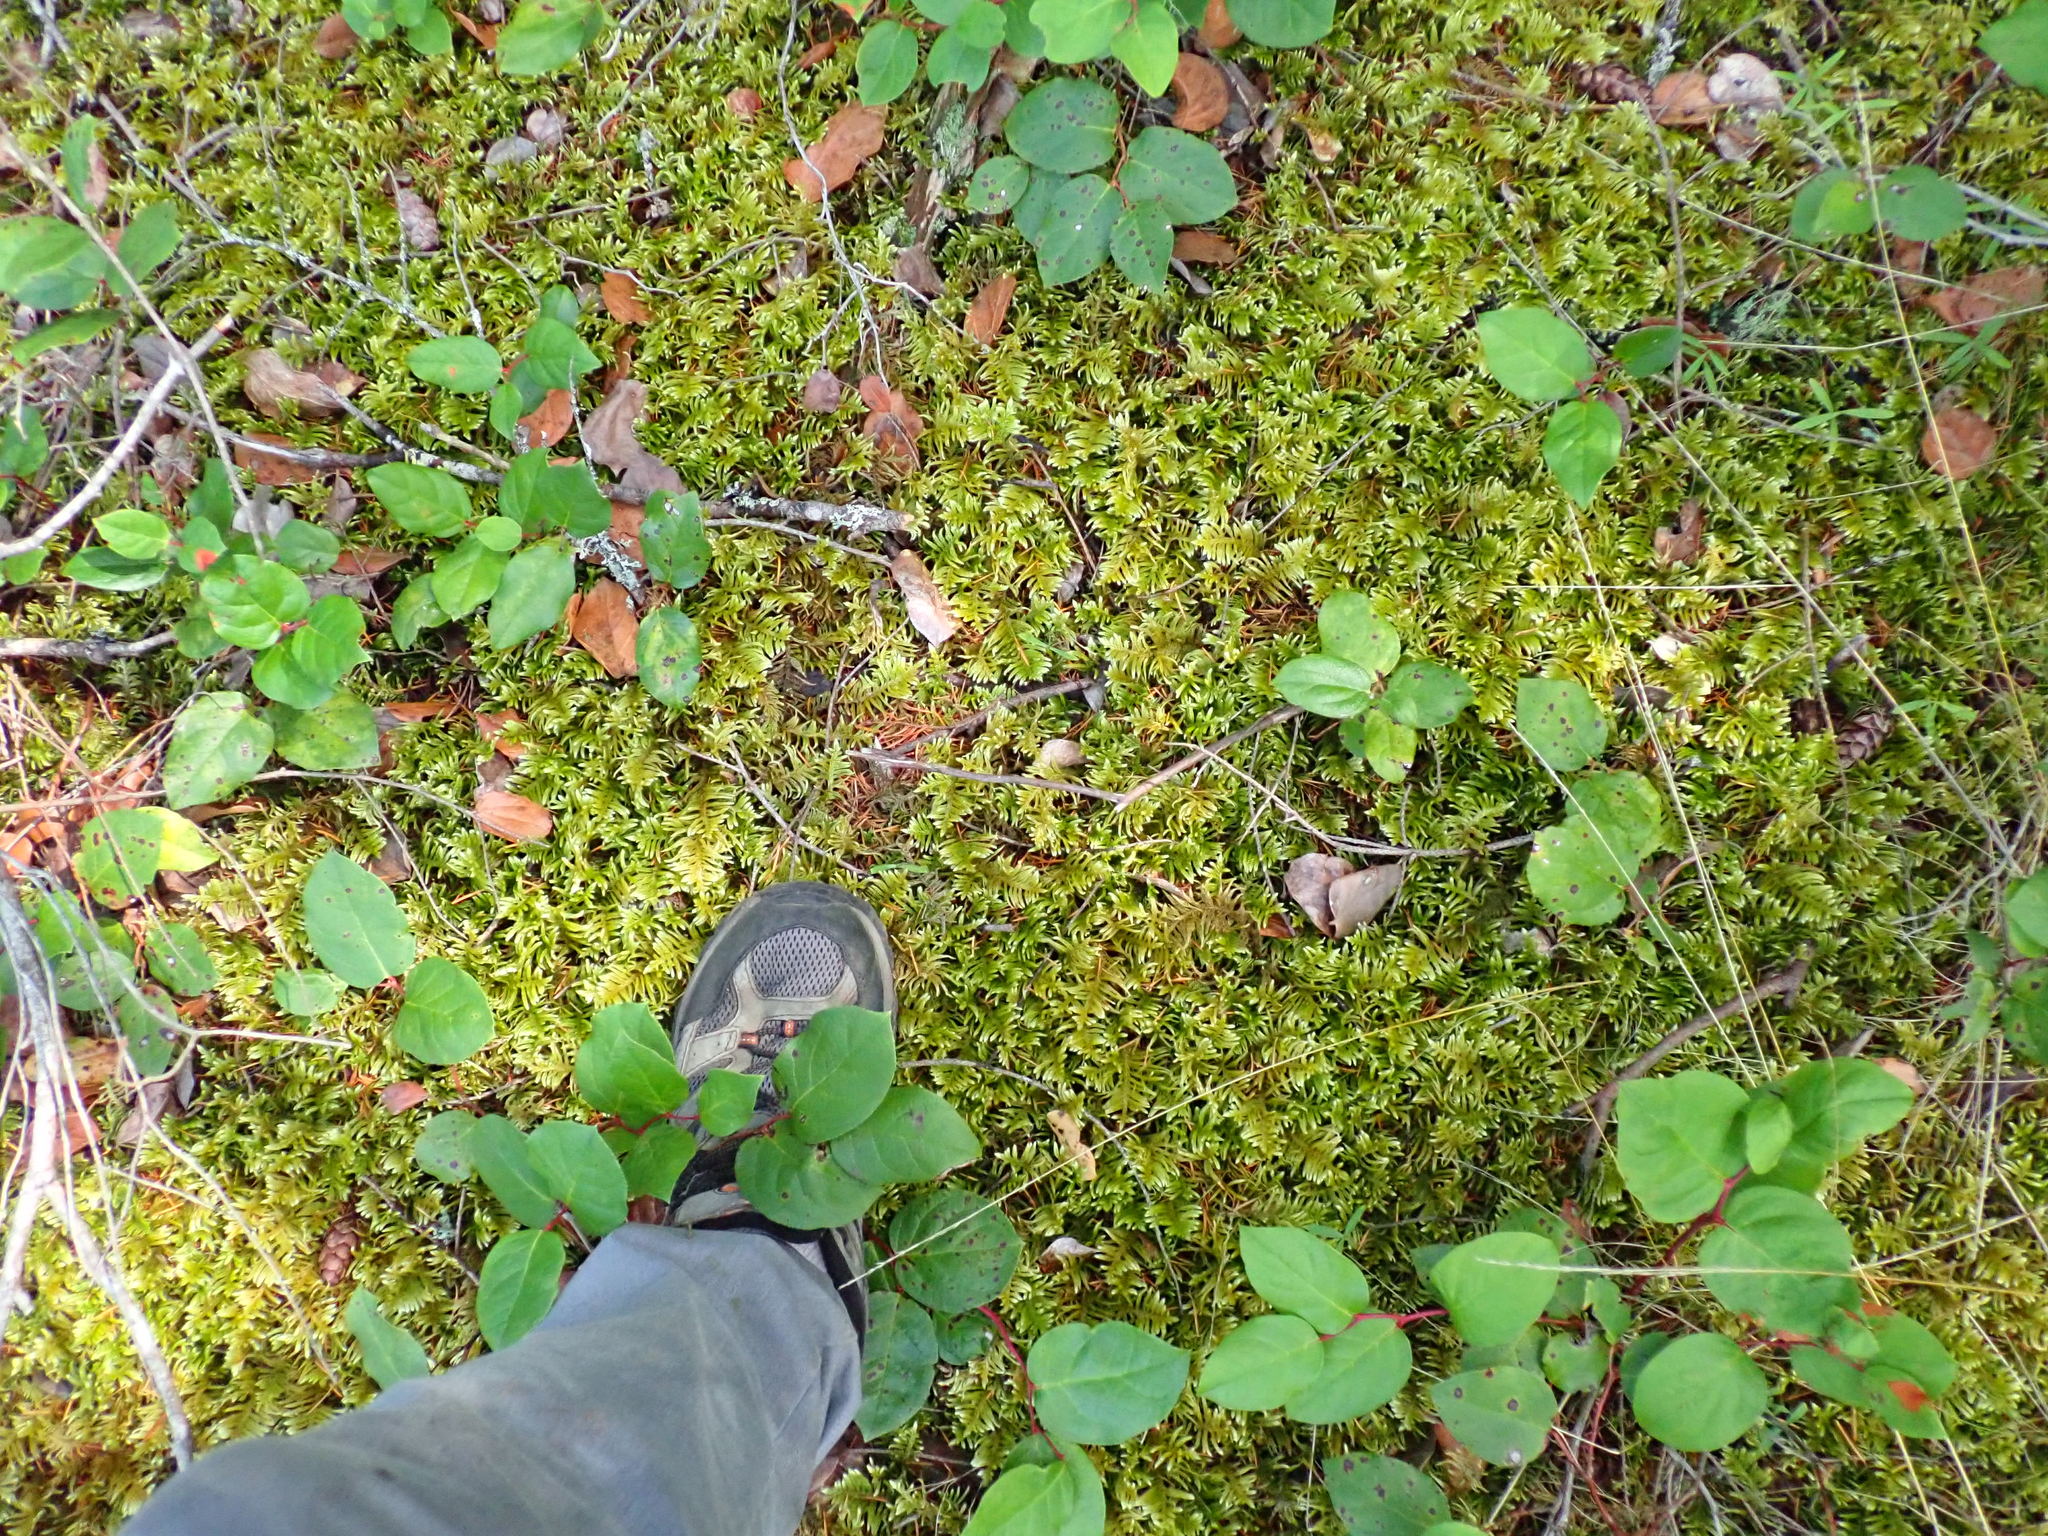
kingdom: Plantae
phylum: Bryophyta
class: Bryopsida
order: Hypnales
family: Brachytheciaceae
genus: Homalothecium
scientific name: Homalothecium megaptilum
